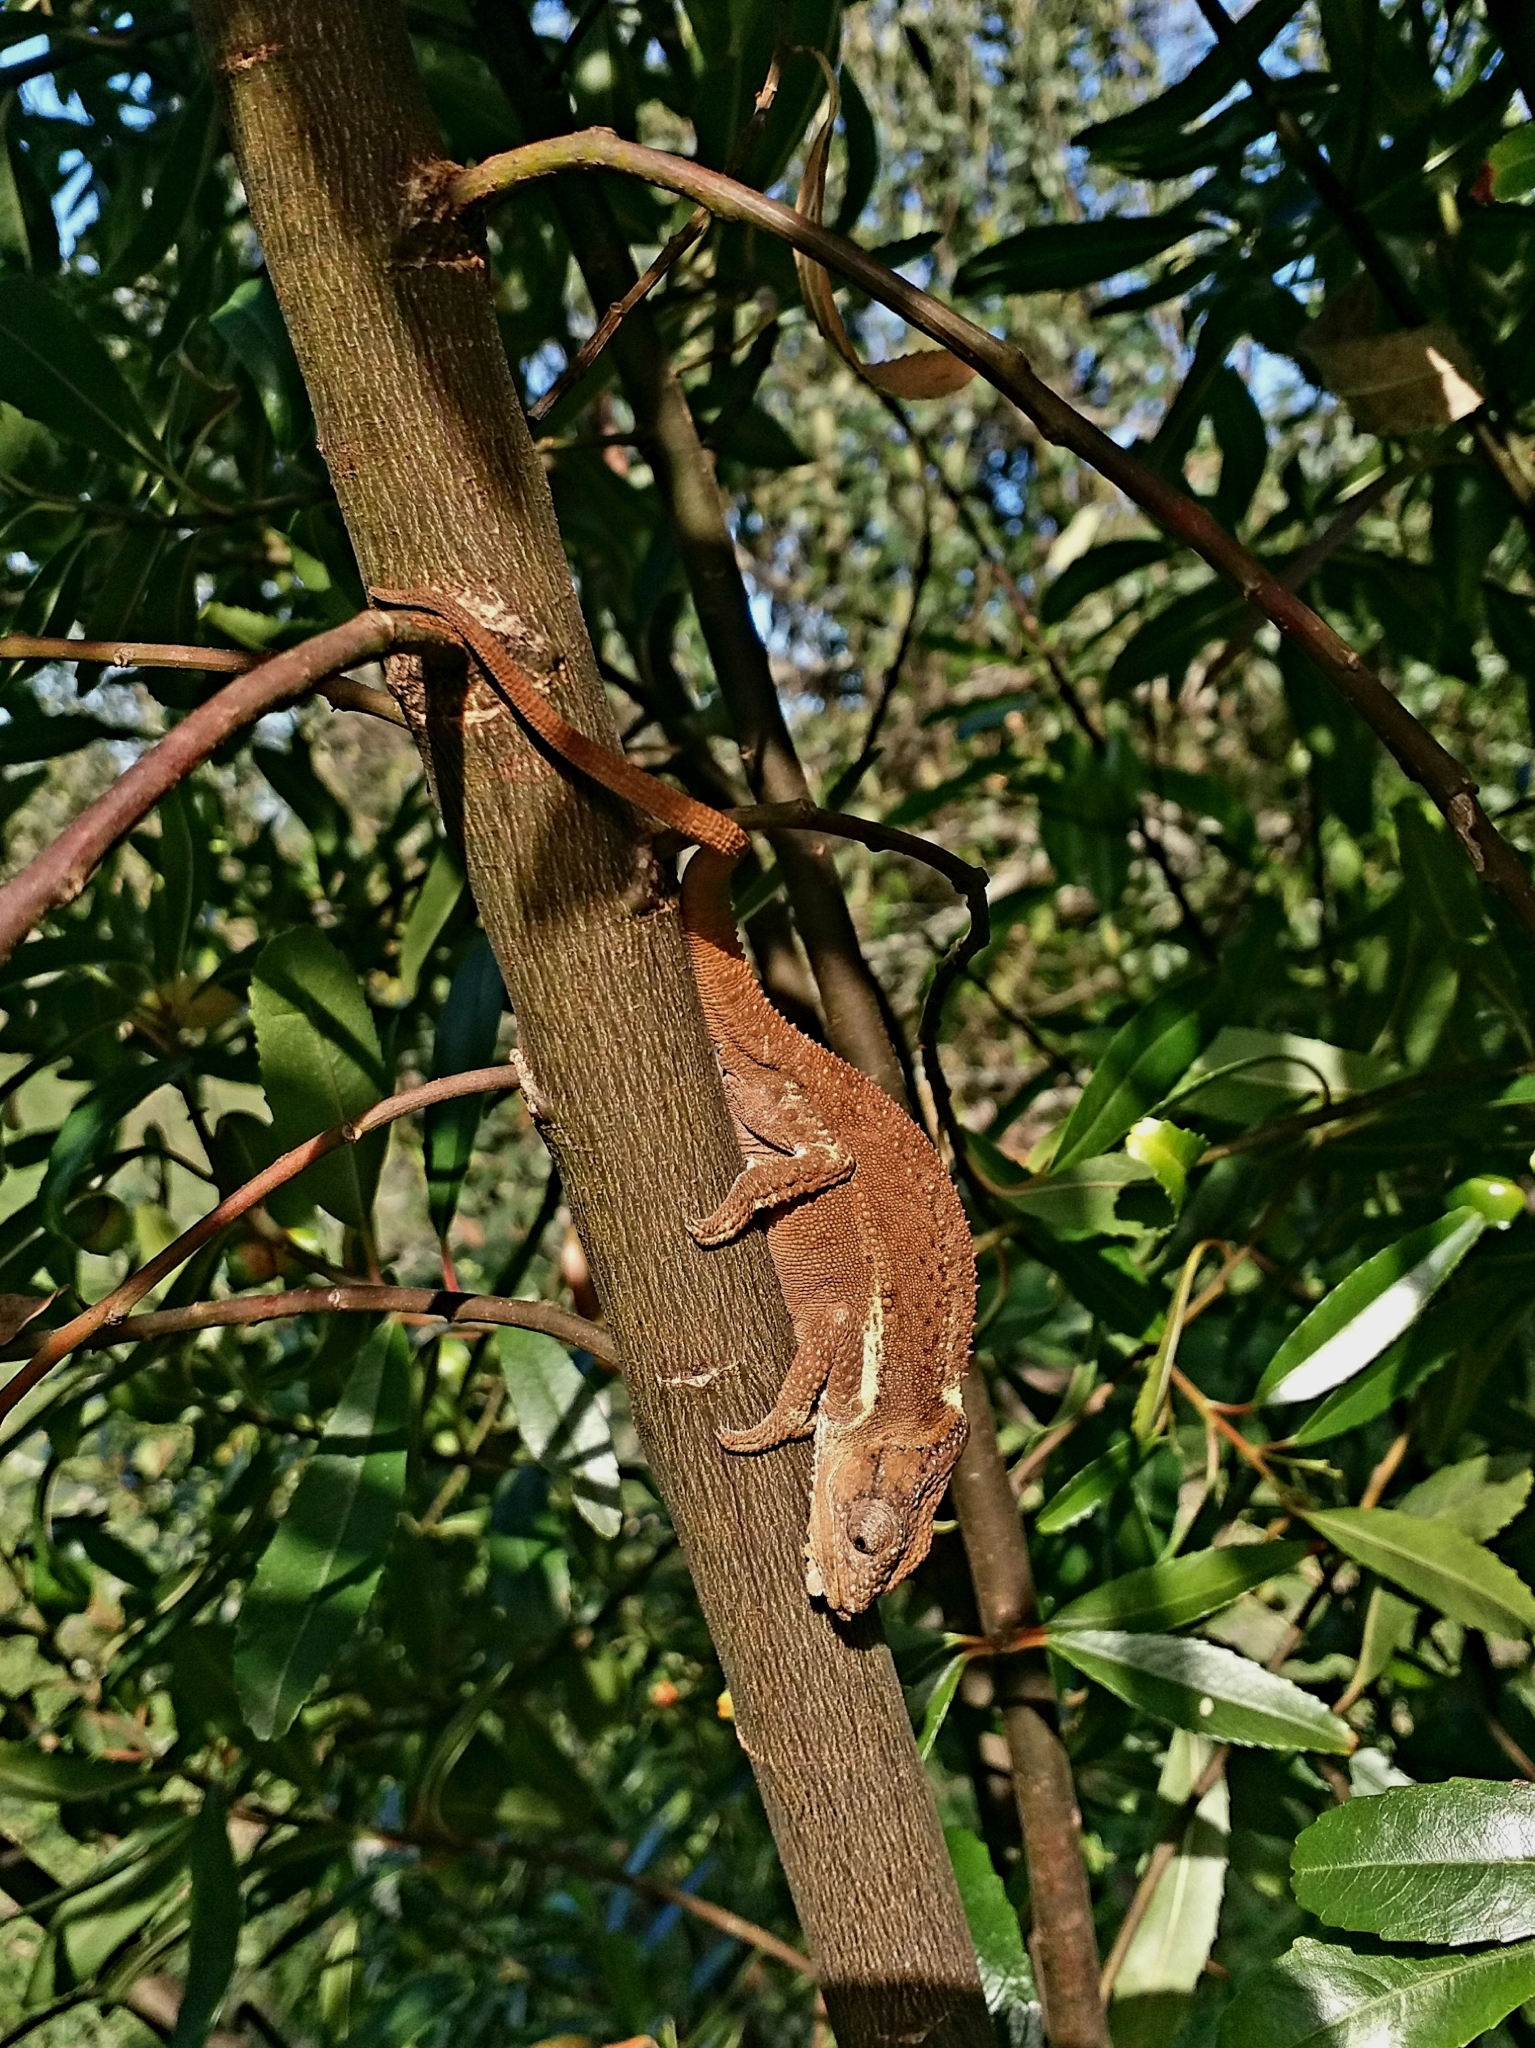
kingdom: Animalia
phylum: Chordata
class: Squamata
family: Chamaeleonidae
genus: Bradypodion
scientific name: Bradypodion damaranum
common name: Knysna dwarf chameleon
